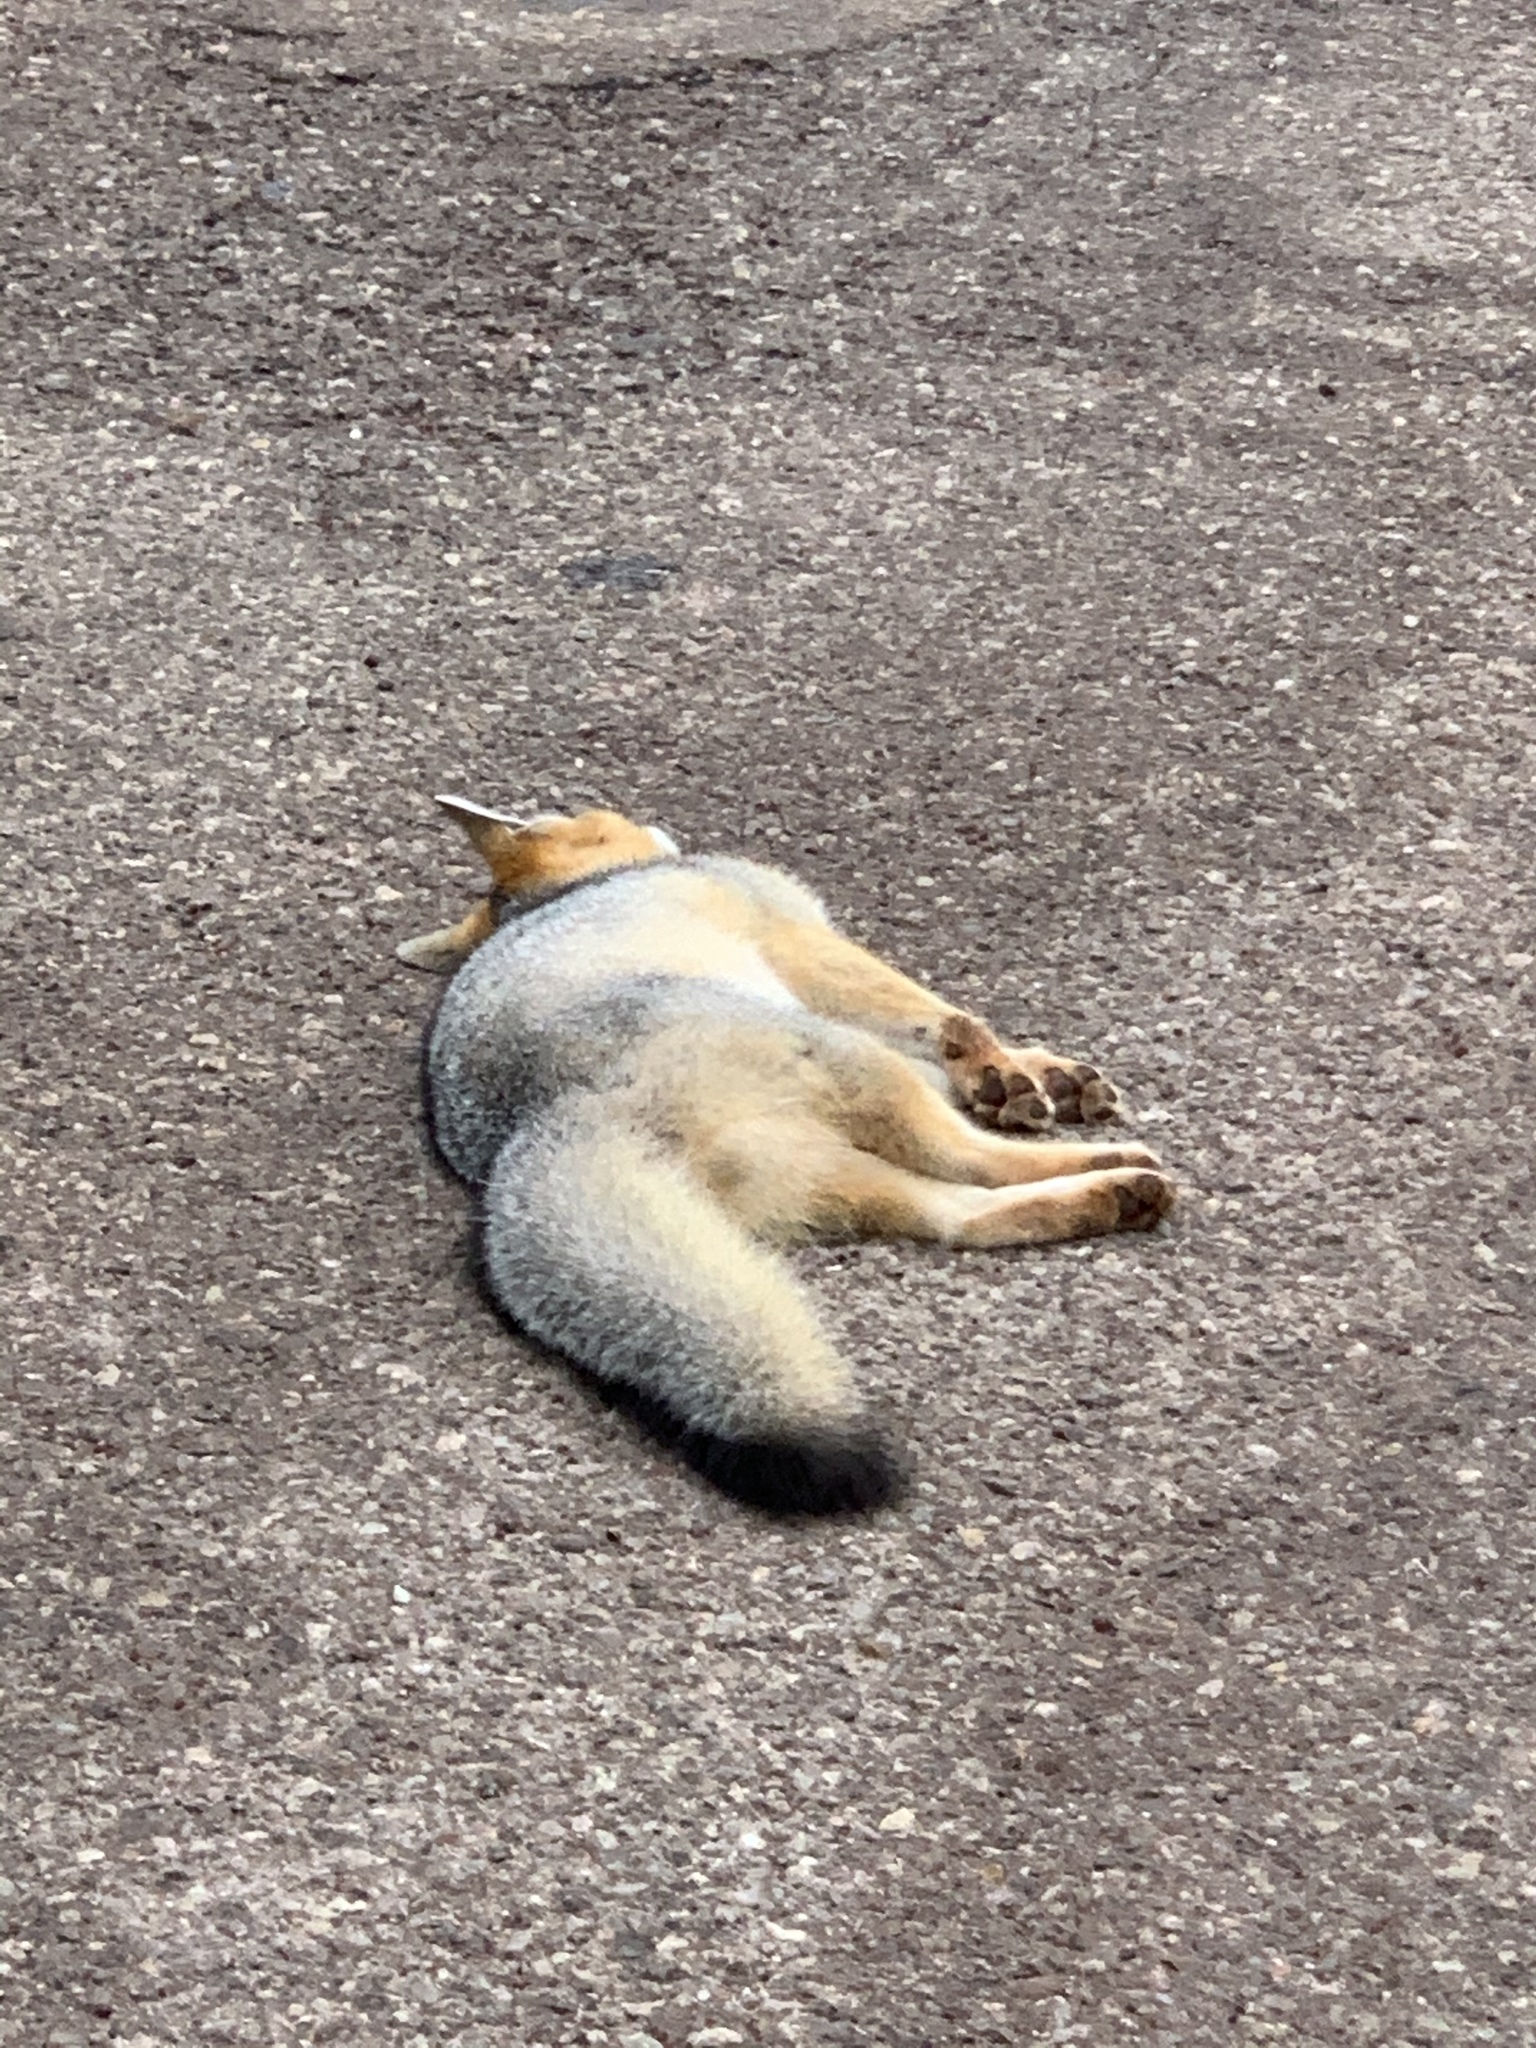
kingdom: Animalia
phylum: Chordata
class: Mammalia
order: Carnivora
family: Canidae
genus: Urocyon
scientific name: Urocyon cinereoargenteus
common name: Gray fox
